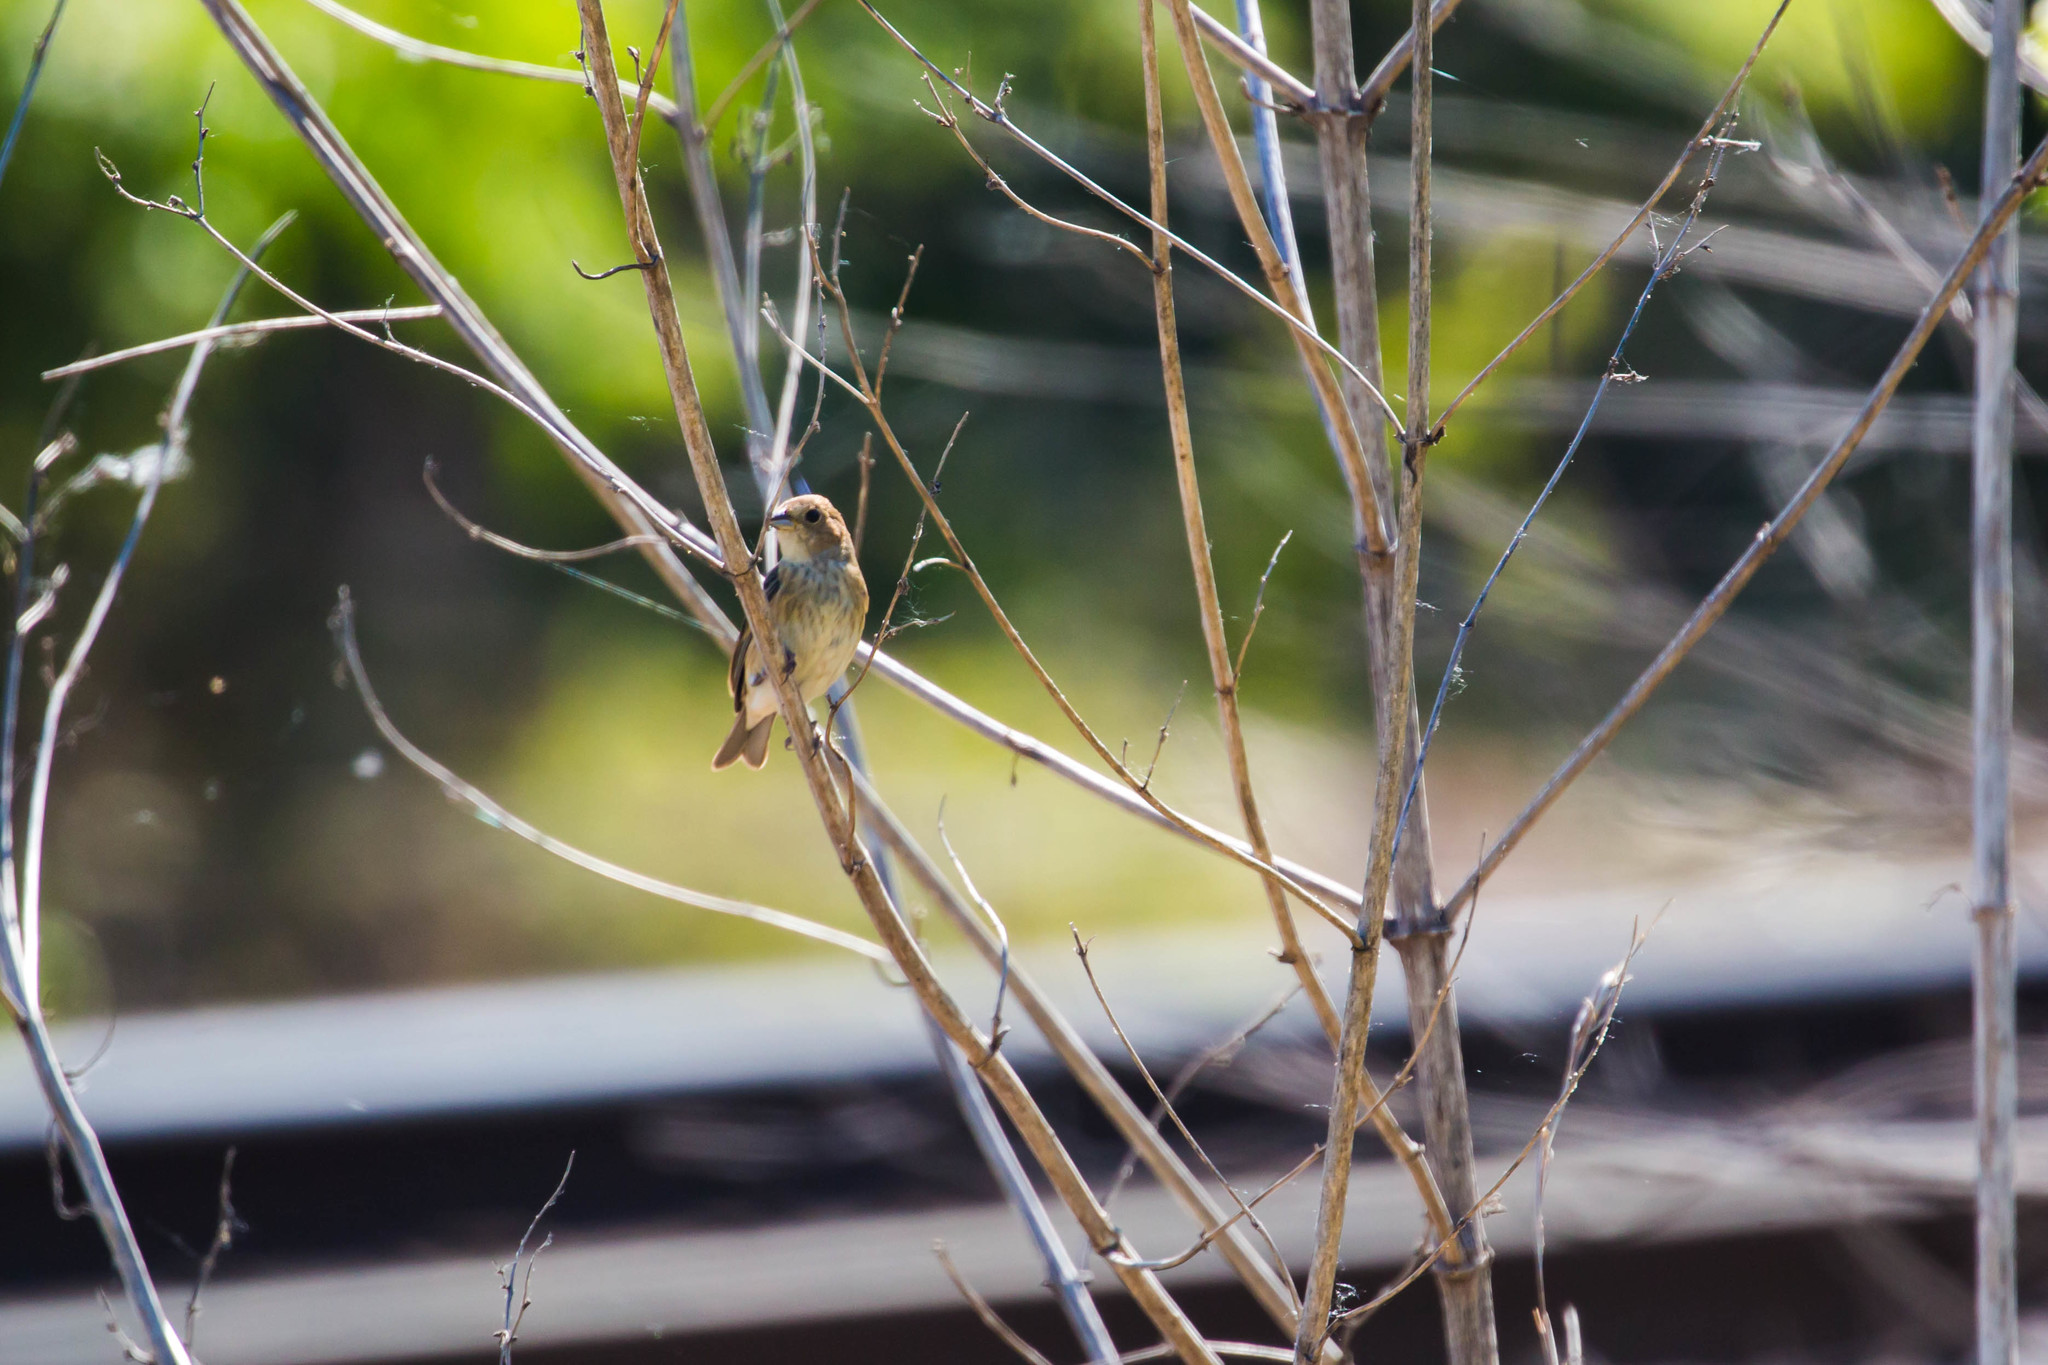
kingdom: Animalia
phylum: Chordata
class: Aves
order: Passeriformes
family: Cardinalidae
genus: Passerina
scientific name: Passerina cyanea
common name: Indigo bunting
